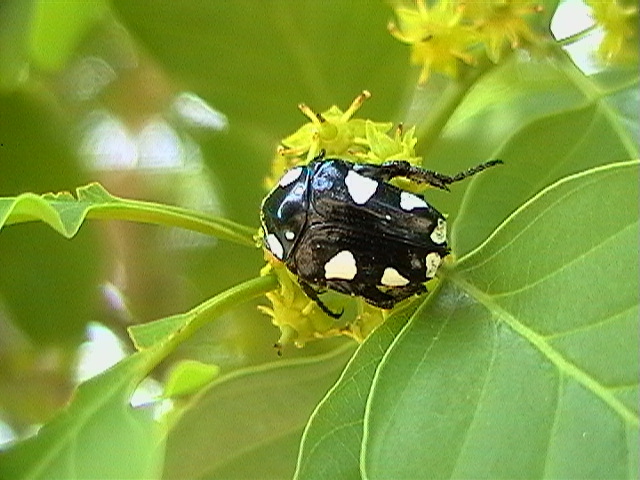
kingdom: Animalia
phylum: Arthropoda
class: Insecta
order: Coleoptera
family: Scarabaeidae
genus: Mausoleopsis
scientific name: Mausoleopsis amabilis
